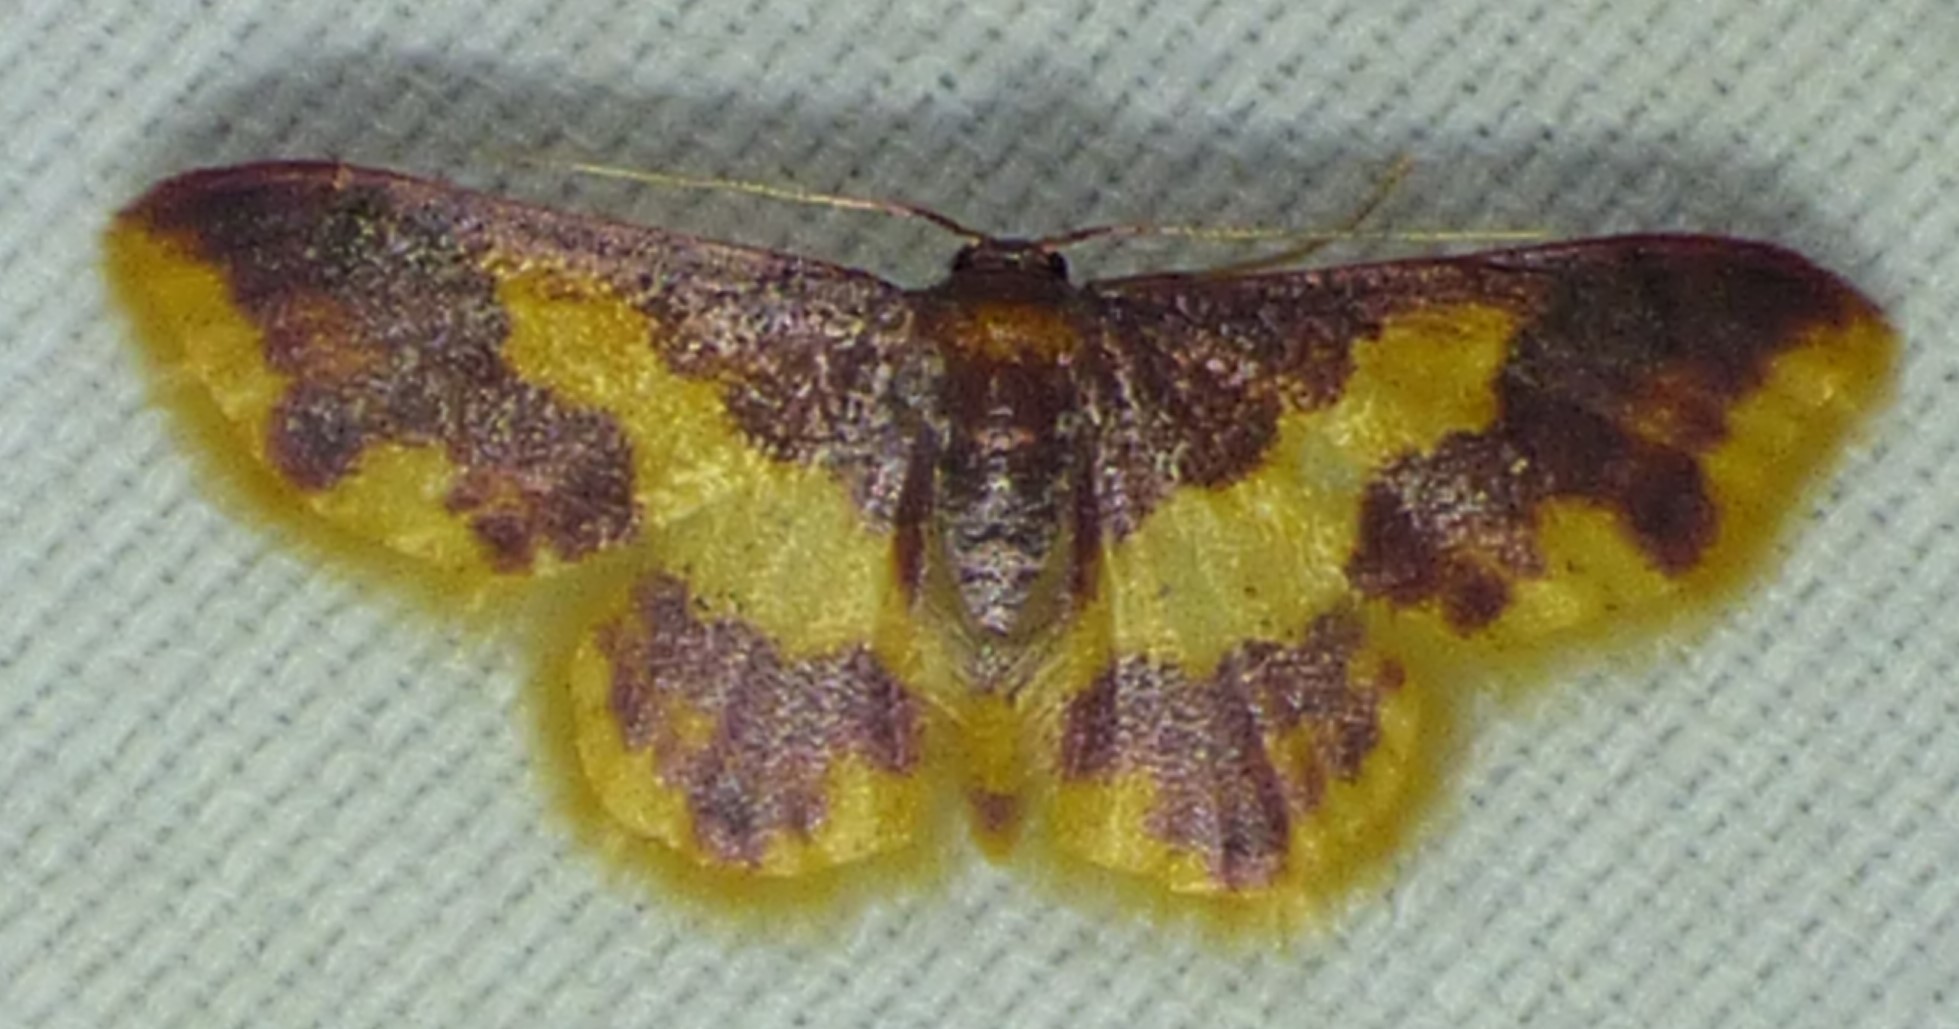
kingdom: Animalia
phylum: Arthropoda
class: Insecta
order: Lepidoptera
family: Geometridae
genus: Lophosis
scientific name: Lophosis labeculata
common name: Stained lophosis moth
